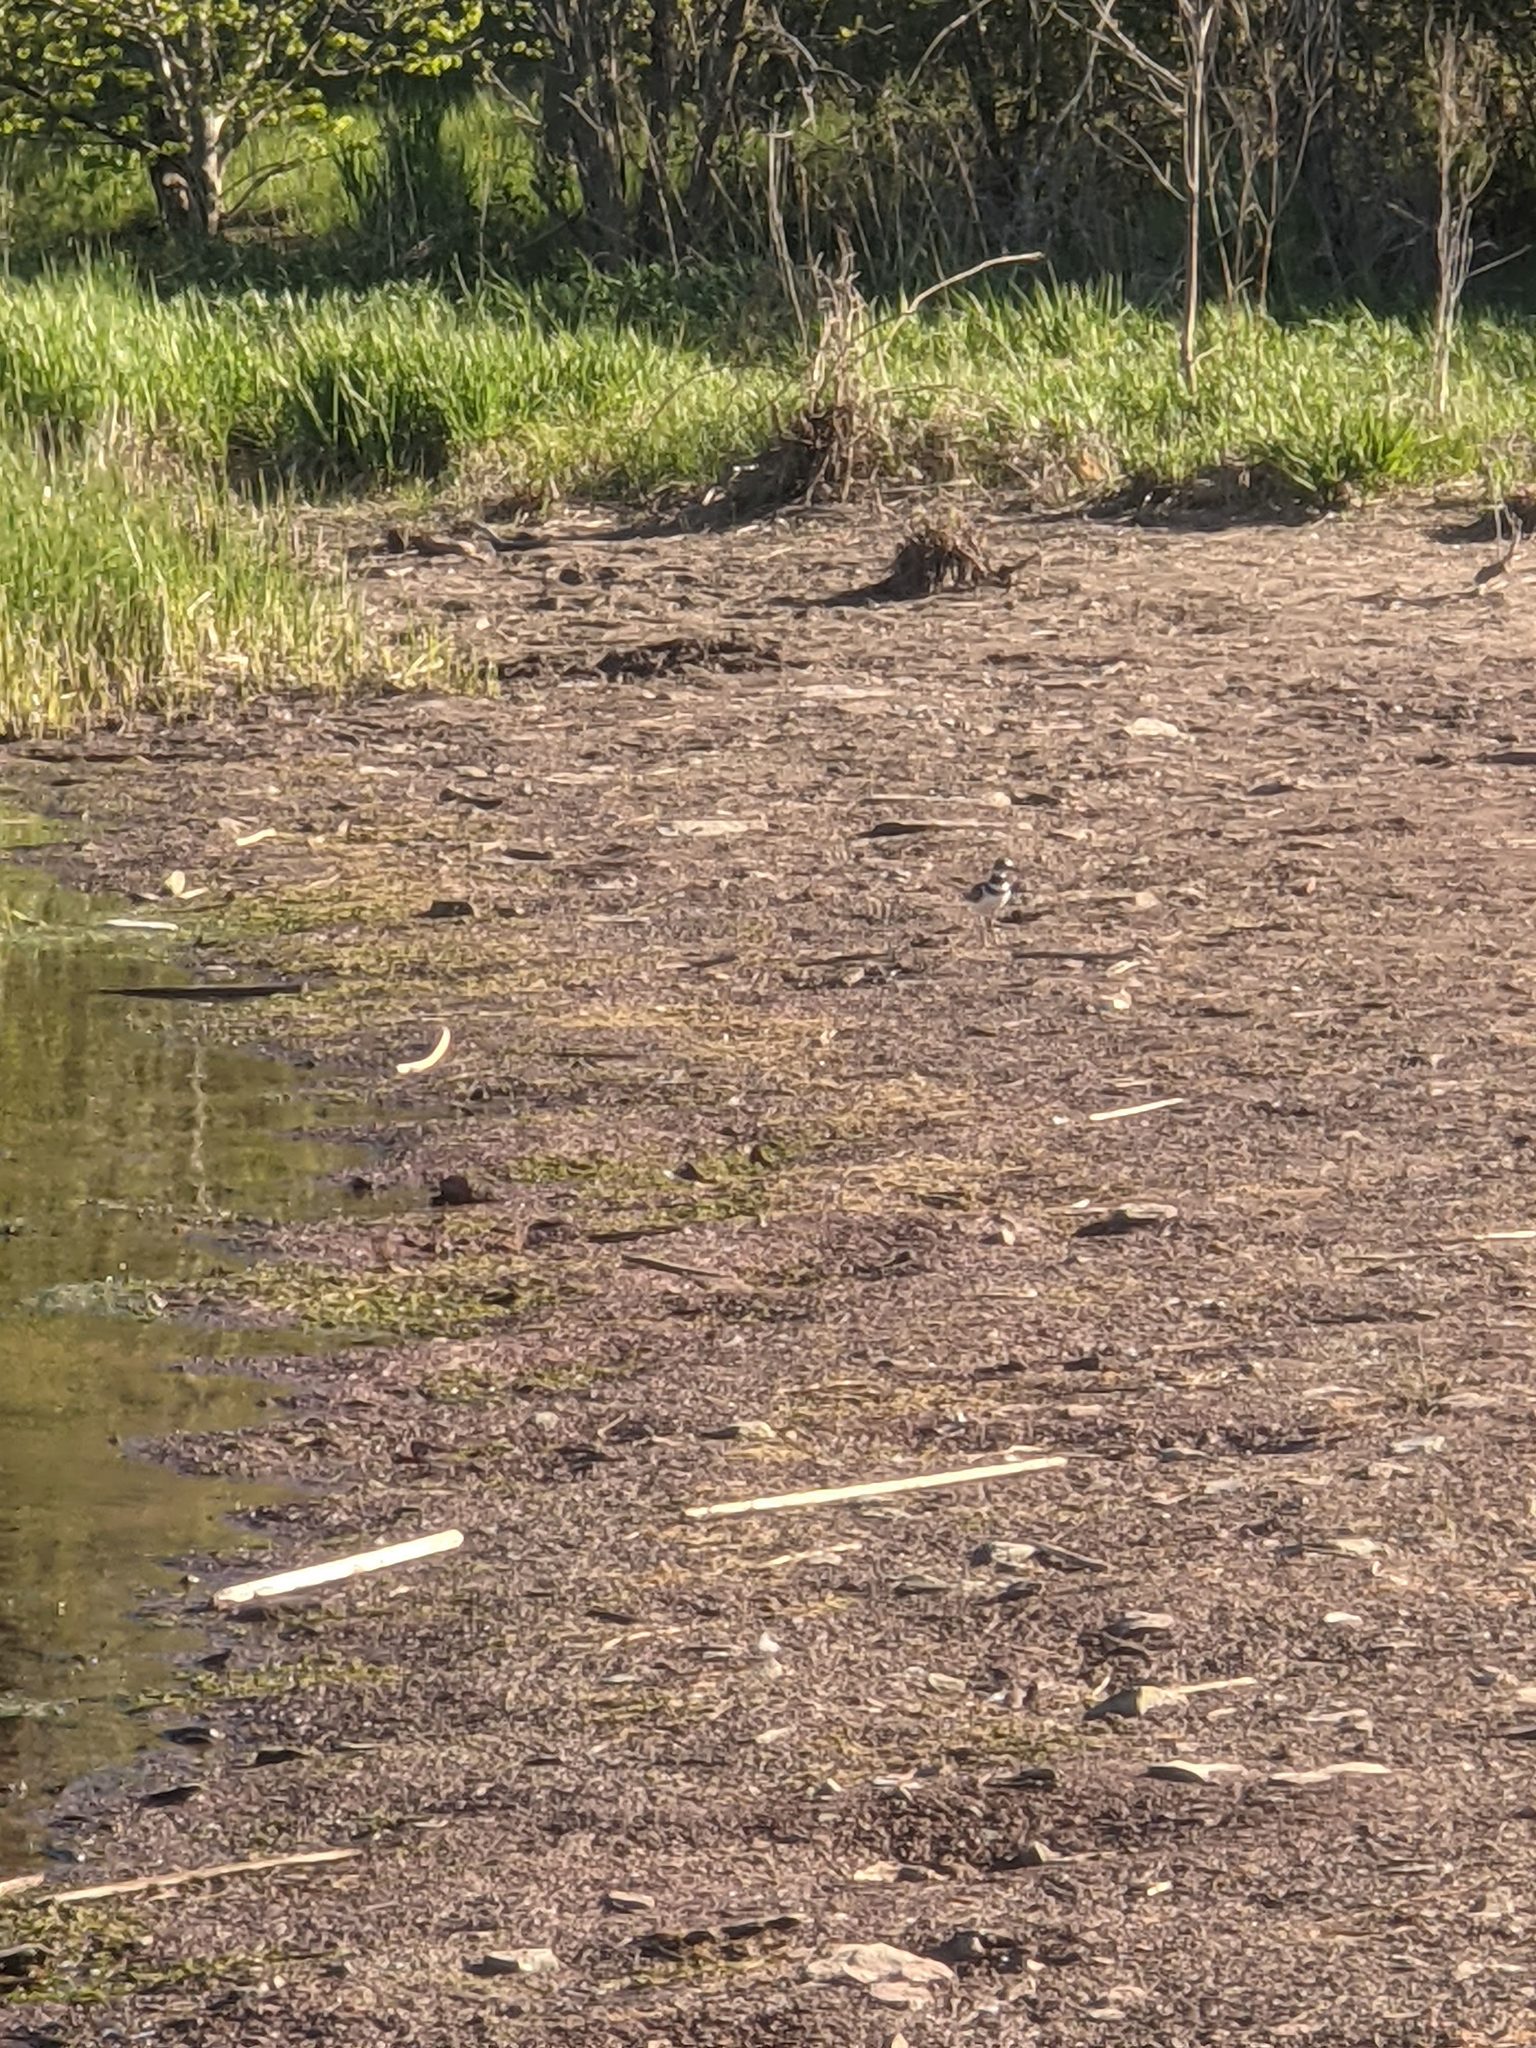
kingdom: Animalia
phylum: Chordata
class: Aves
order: Charadriiformes
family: Charadriidae
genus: Charadrius
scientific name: Charadrius vociferus
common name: Killdeer
